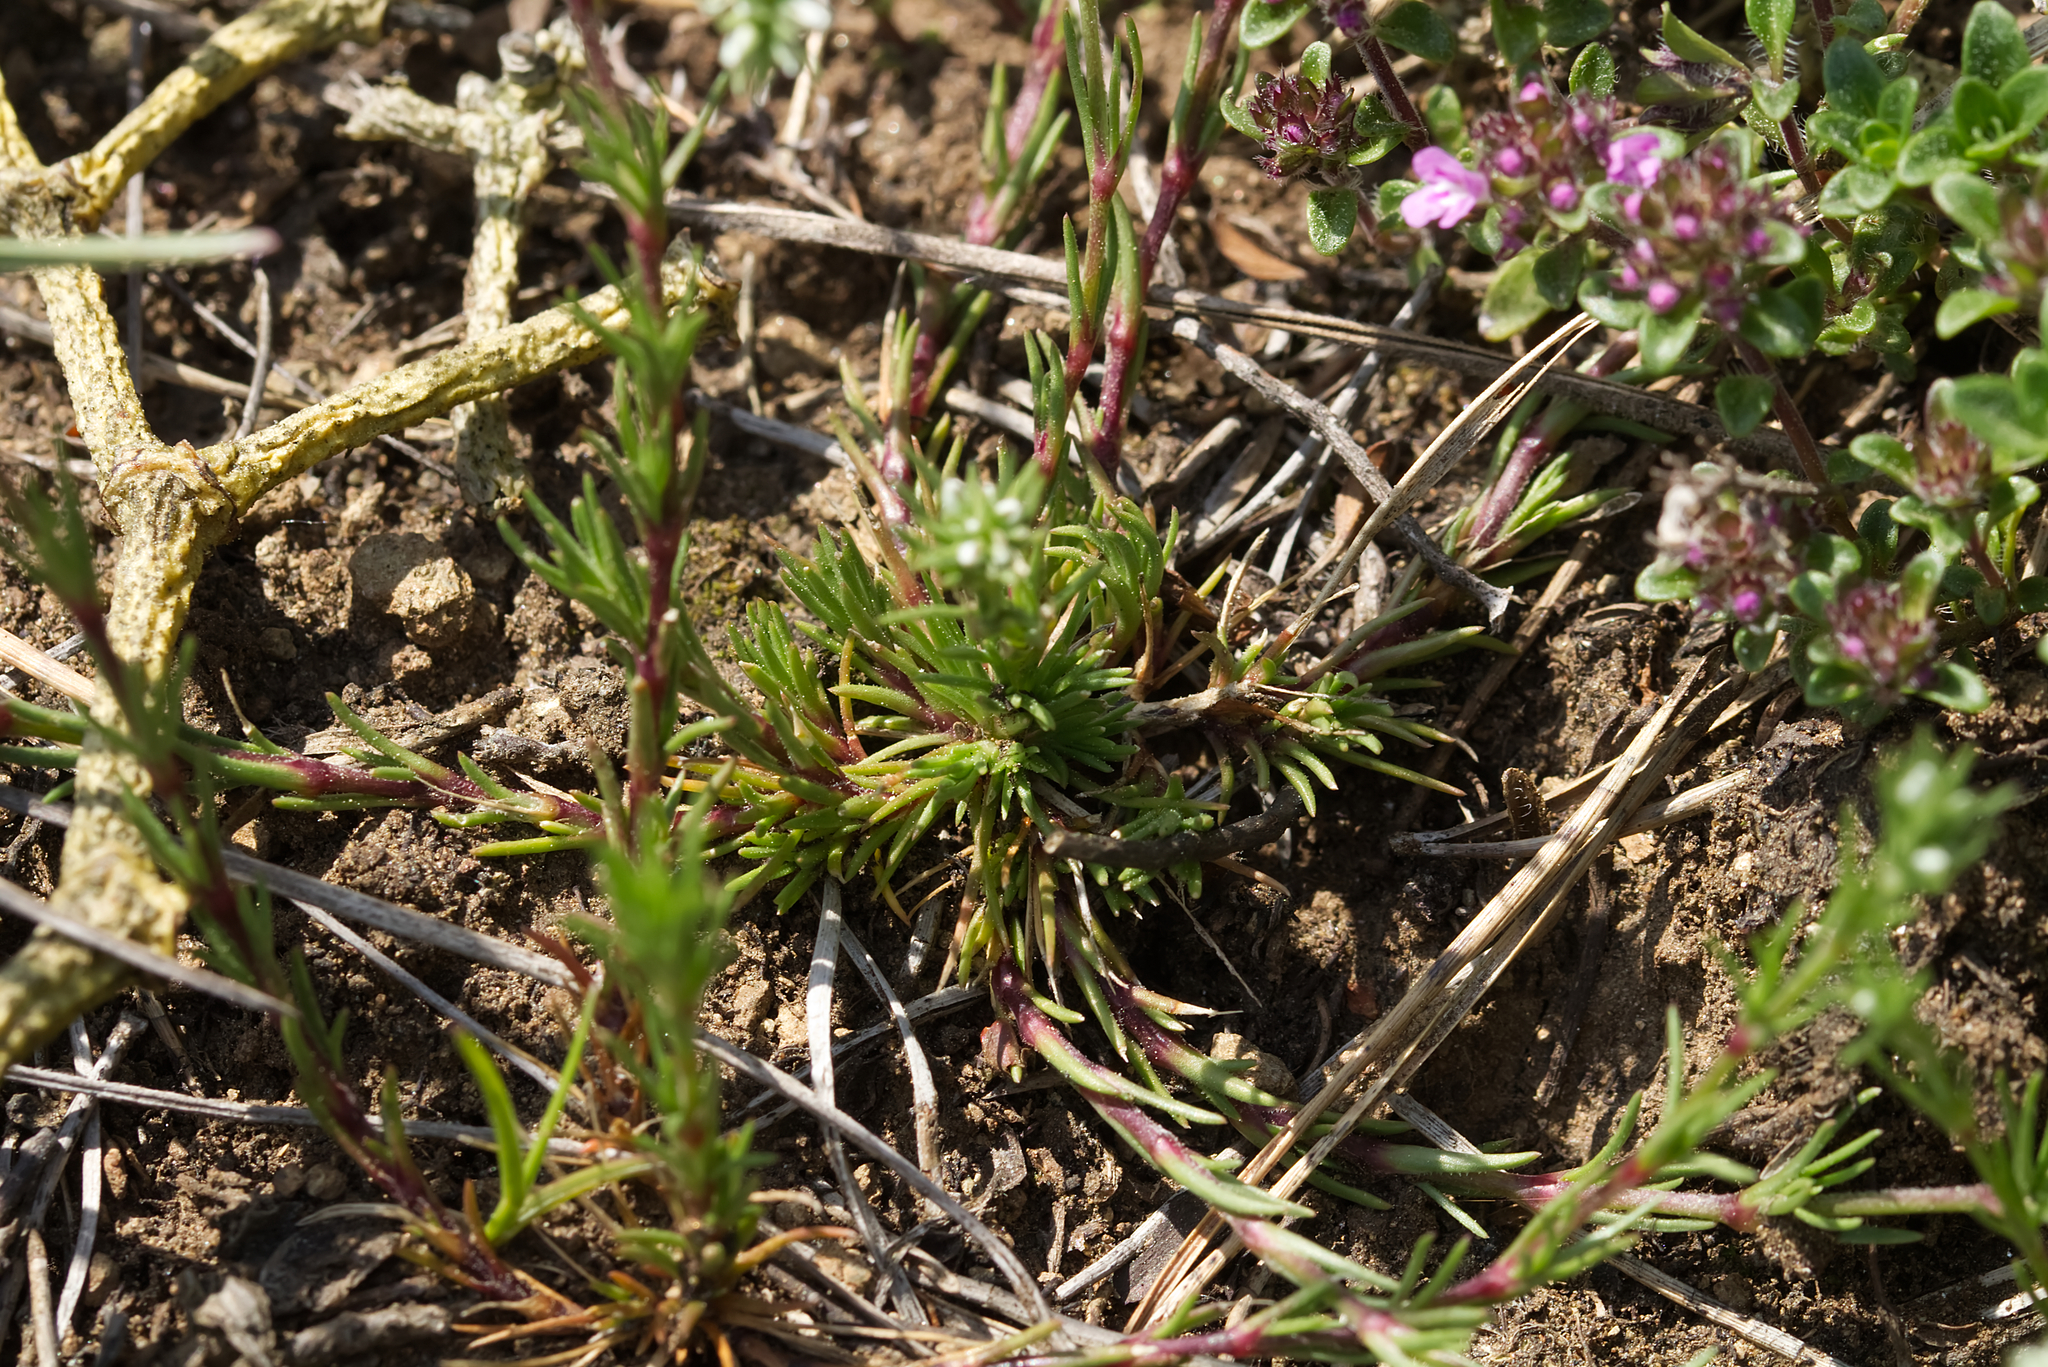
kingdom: Plantae
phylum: Tracheophyta
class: Magnoliopsida
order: Caryophyllales
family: Caryophyllaceae
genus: Scleranthus
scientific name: Scleranthus perennis
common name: Perennial knawel
